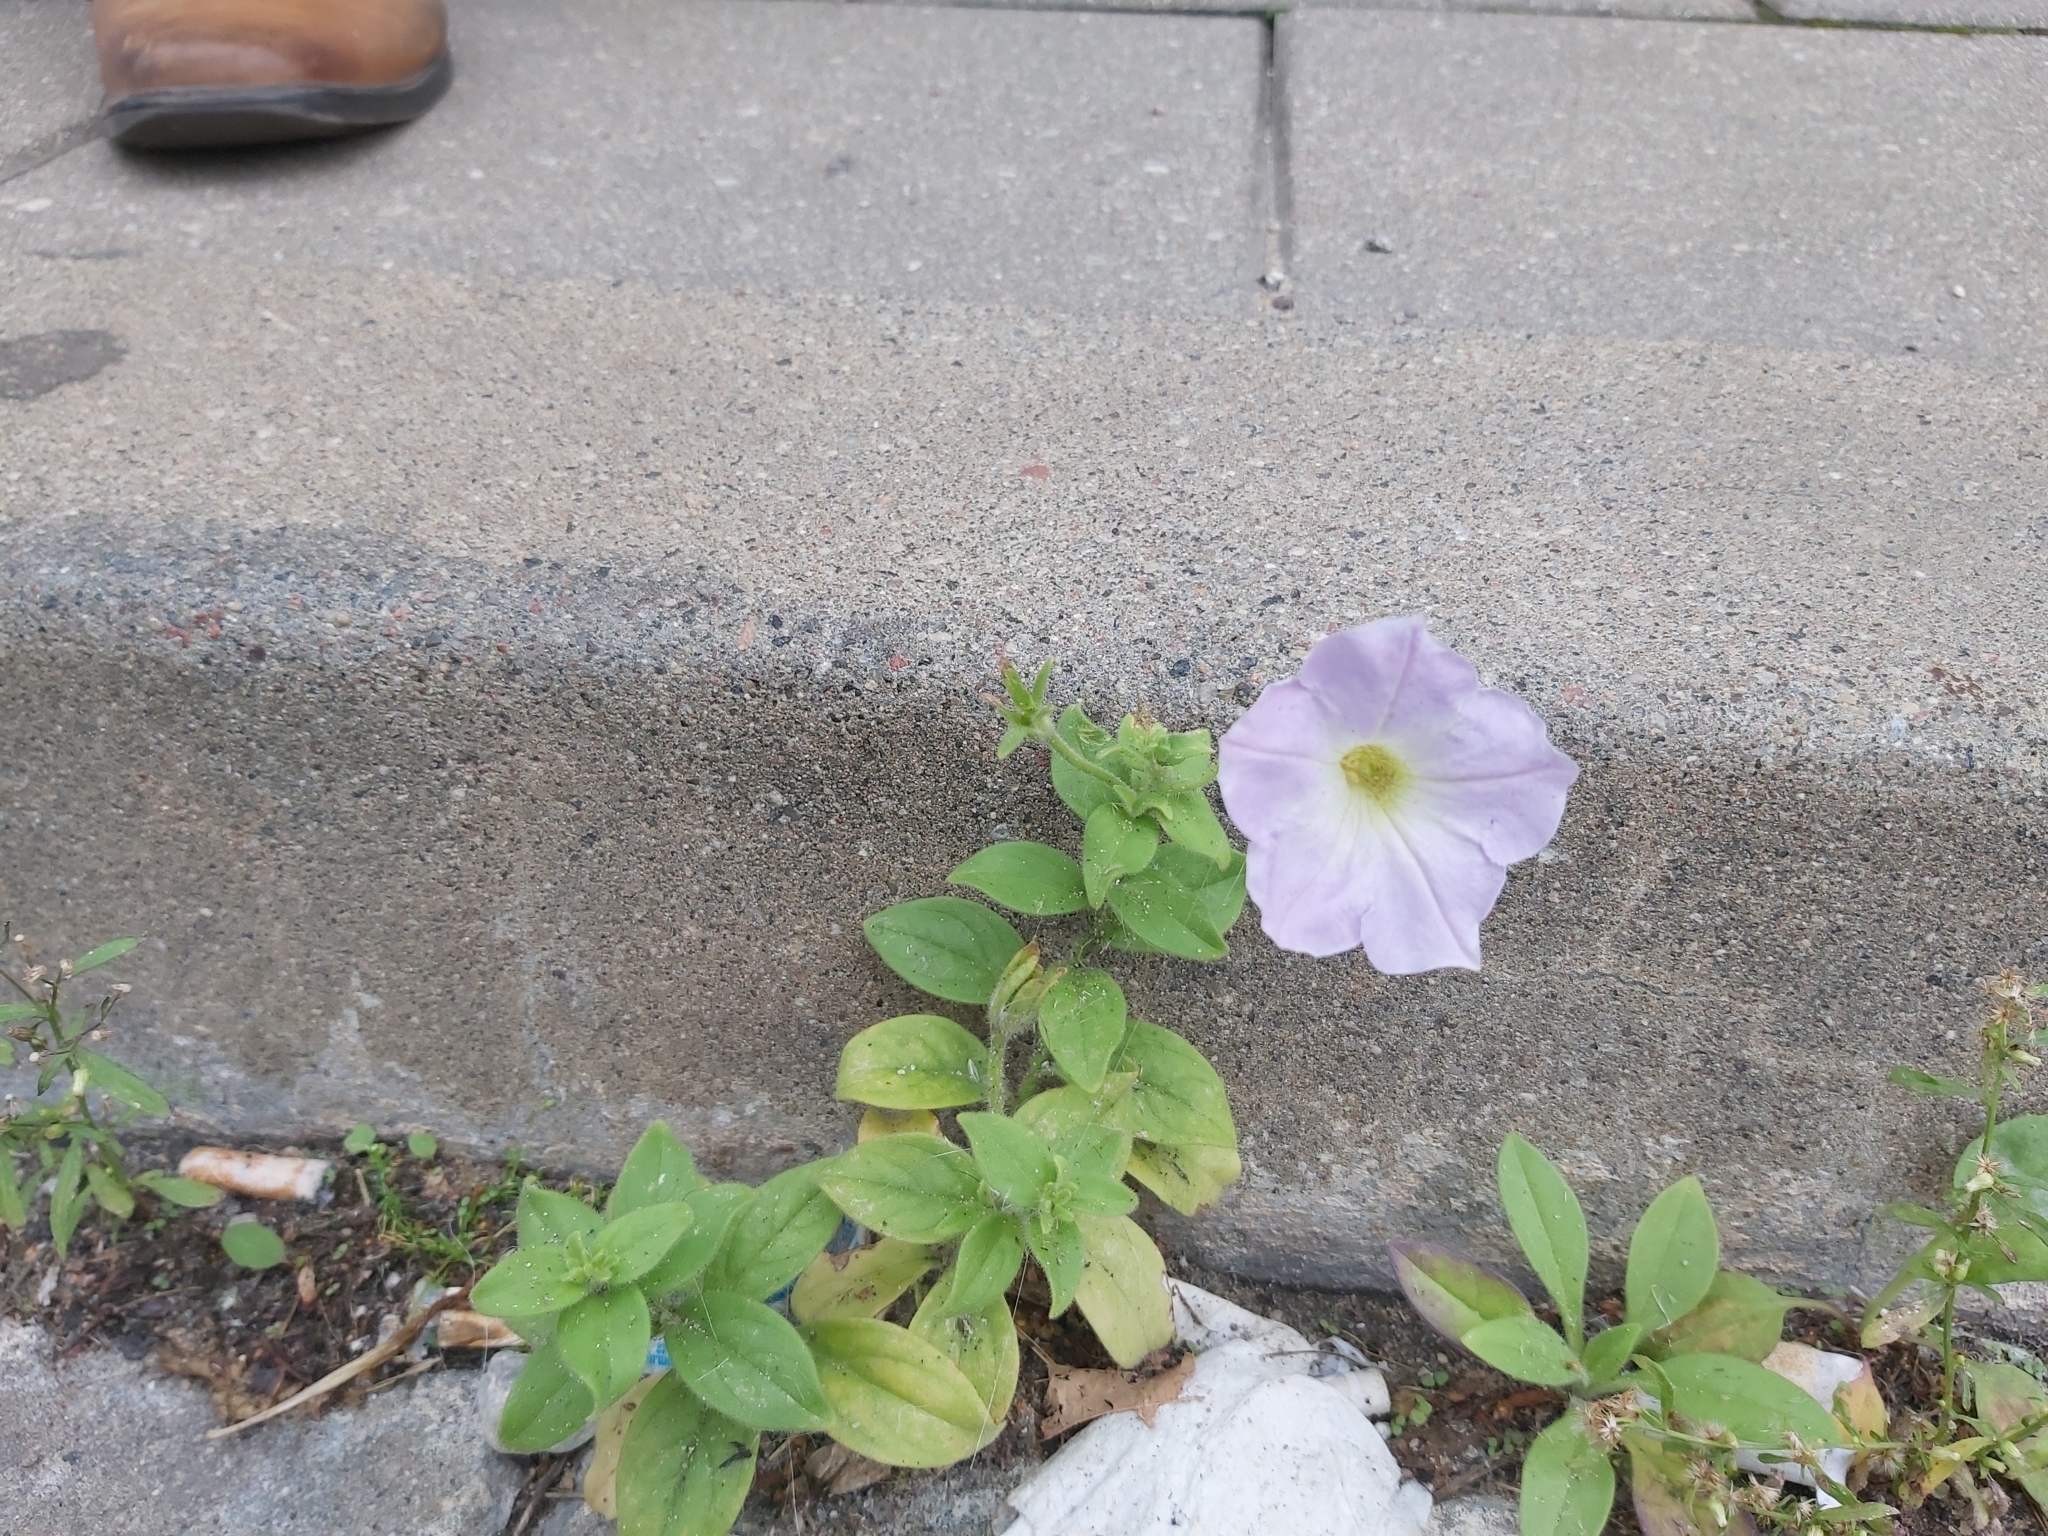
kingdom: Plantae
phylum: Tracheophyta
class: Magnoliopsida
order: Solanales
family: Solanaceae
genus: Petunia
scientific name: Petunia atkinsiana
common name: Petunia
